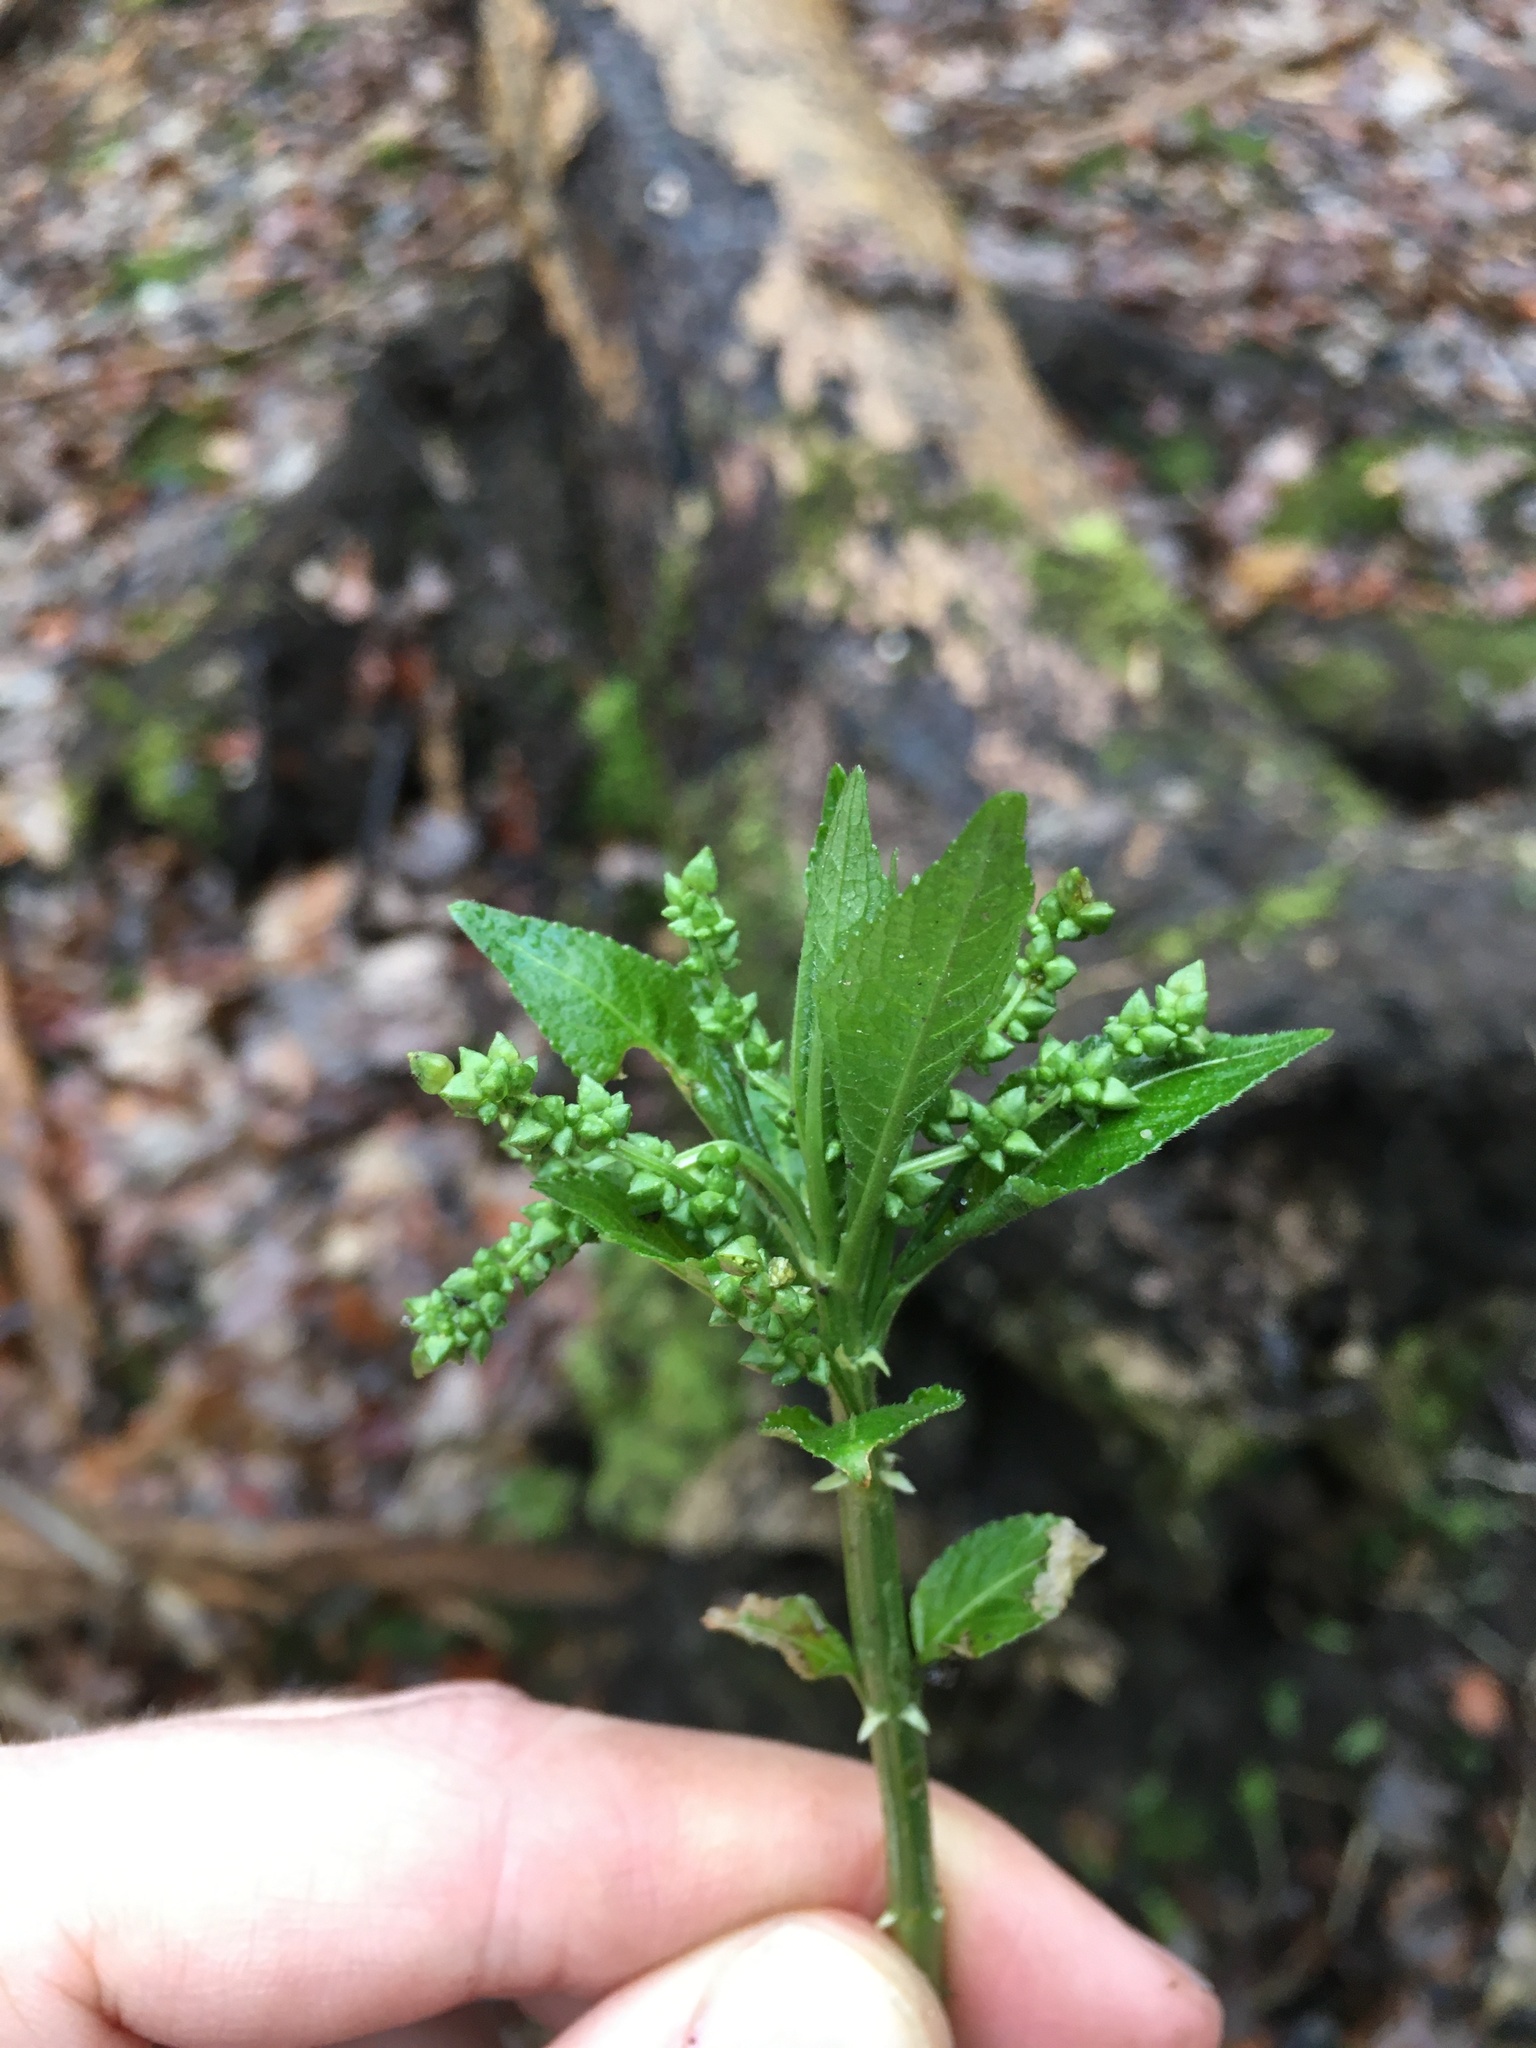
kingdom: Plantae
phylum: Tracheophyta
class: Magnoliopsida
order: Malpighiales
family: Euphorbiaceae
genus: Mercurialis
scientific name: Mercurialis perennis
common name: Dog mercury
